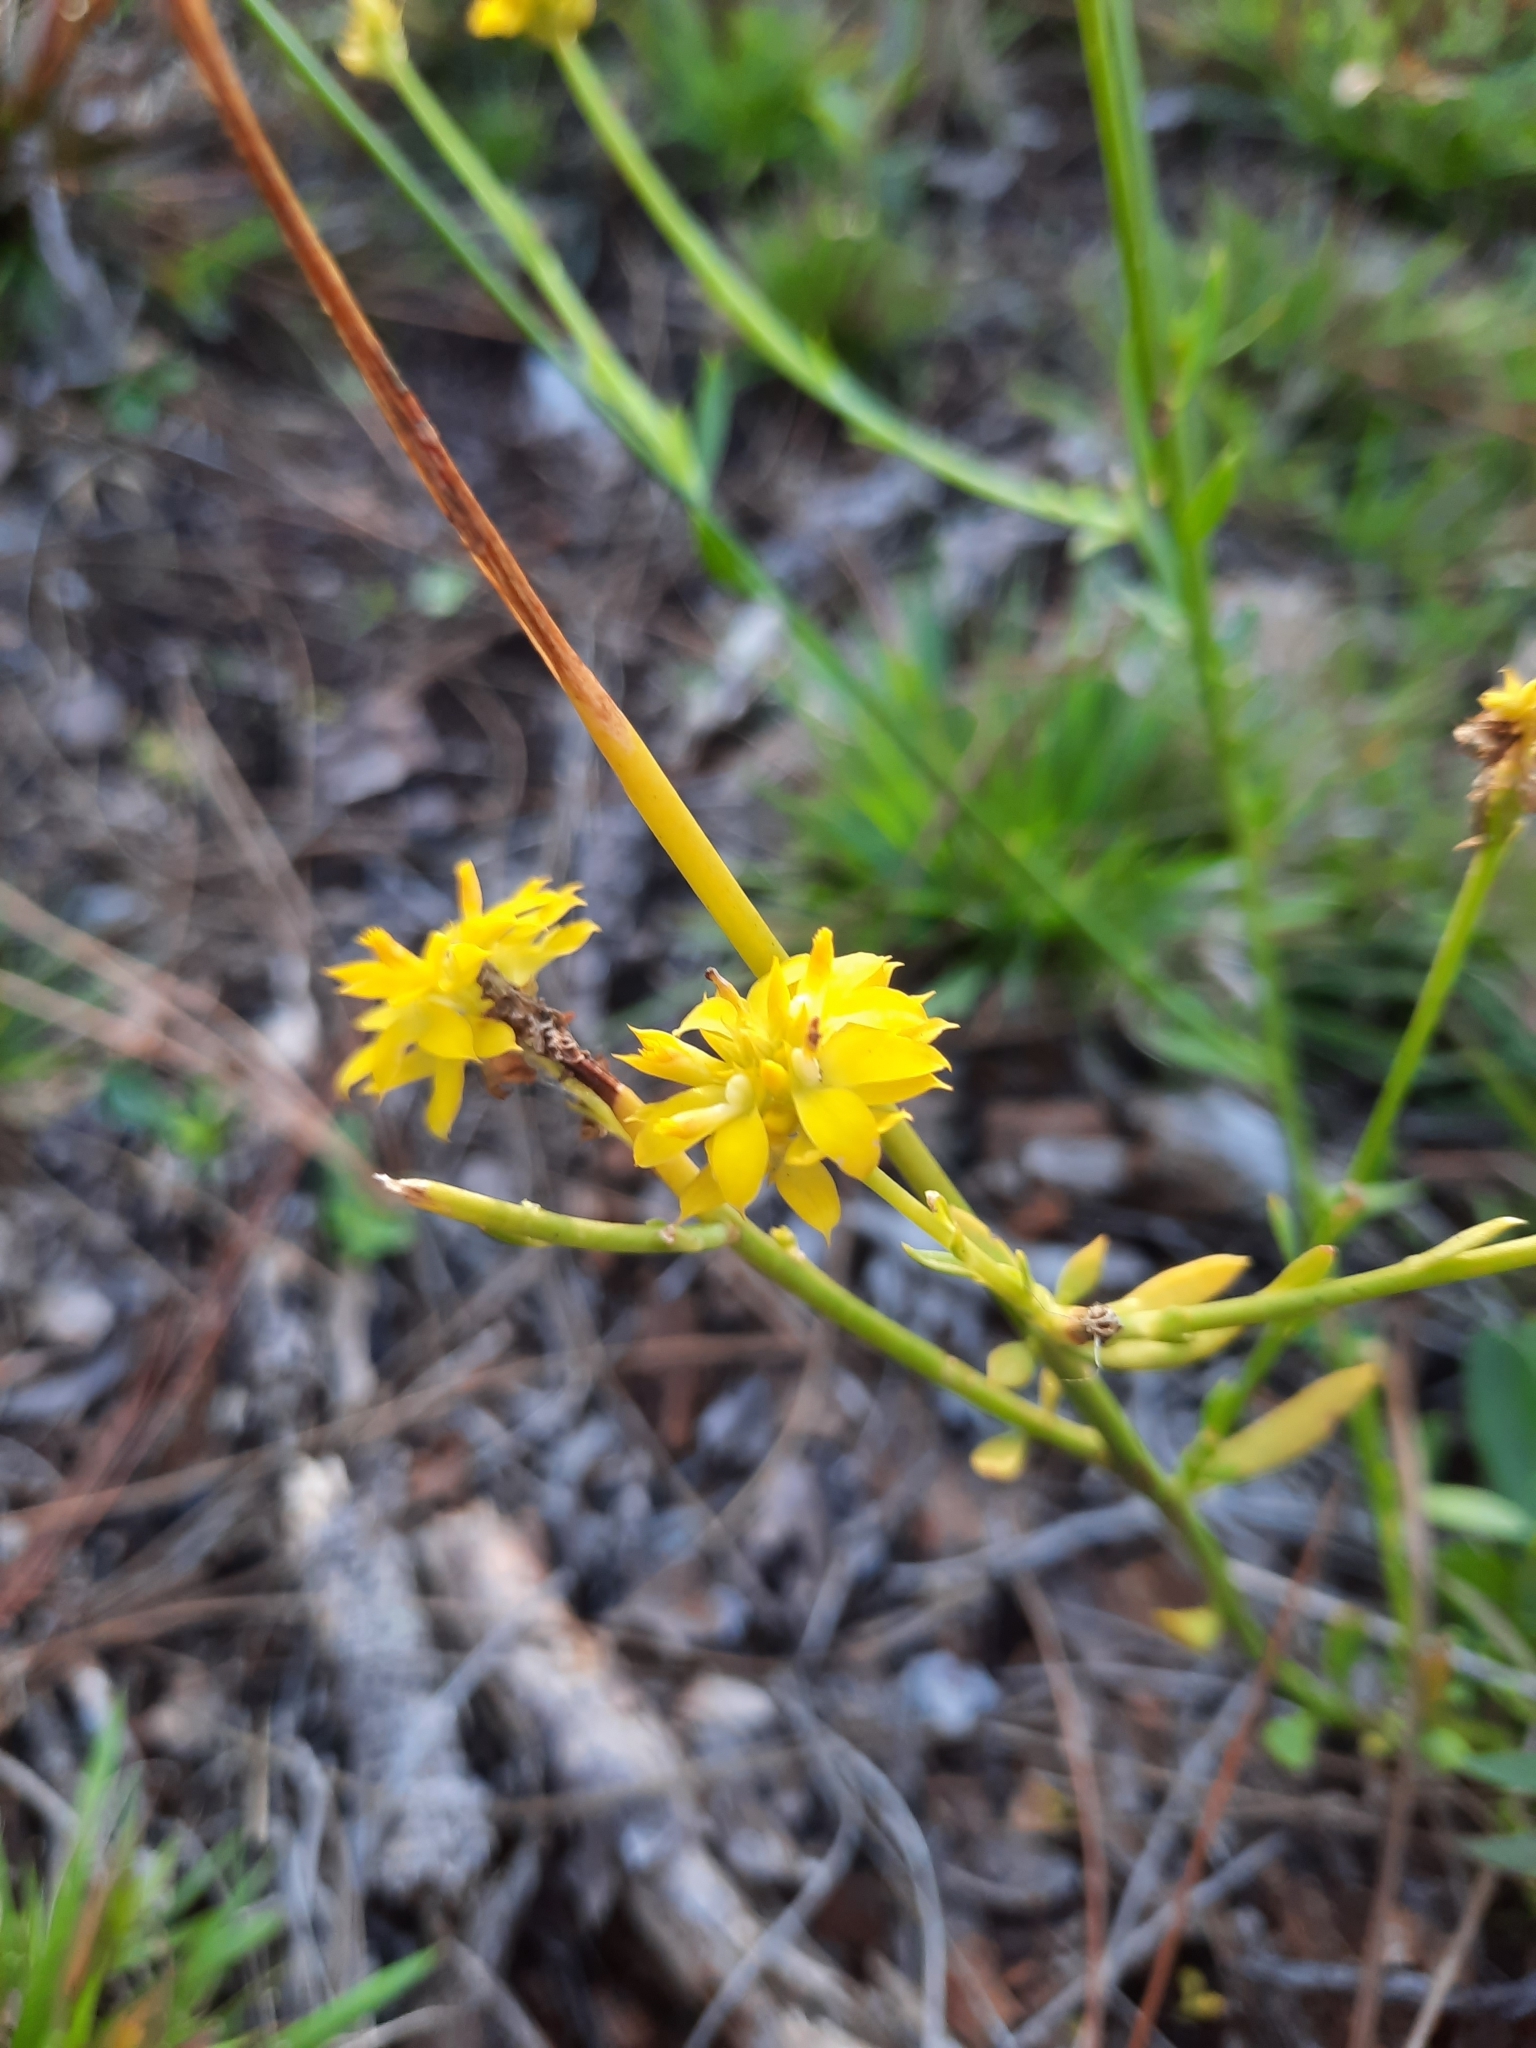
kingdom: Plantae
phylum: Tracheophyta
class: Magnoliopsida
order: Fabales
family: Polygalaceae
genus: Polygala
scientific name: Polygala rugelii
